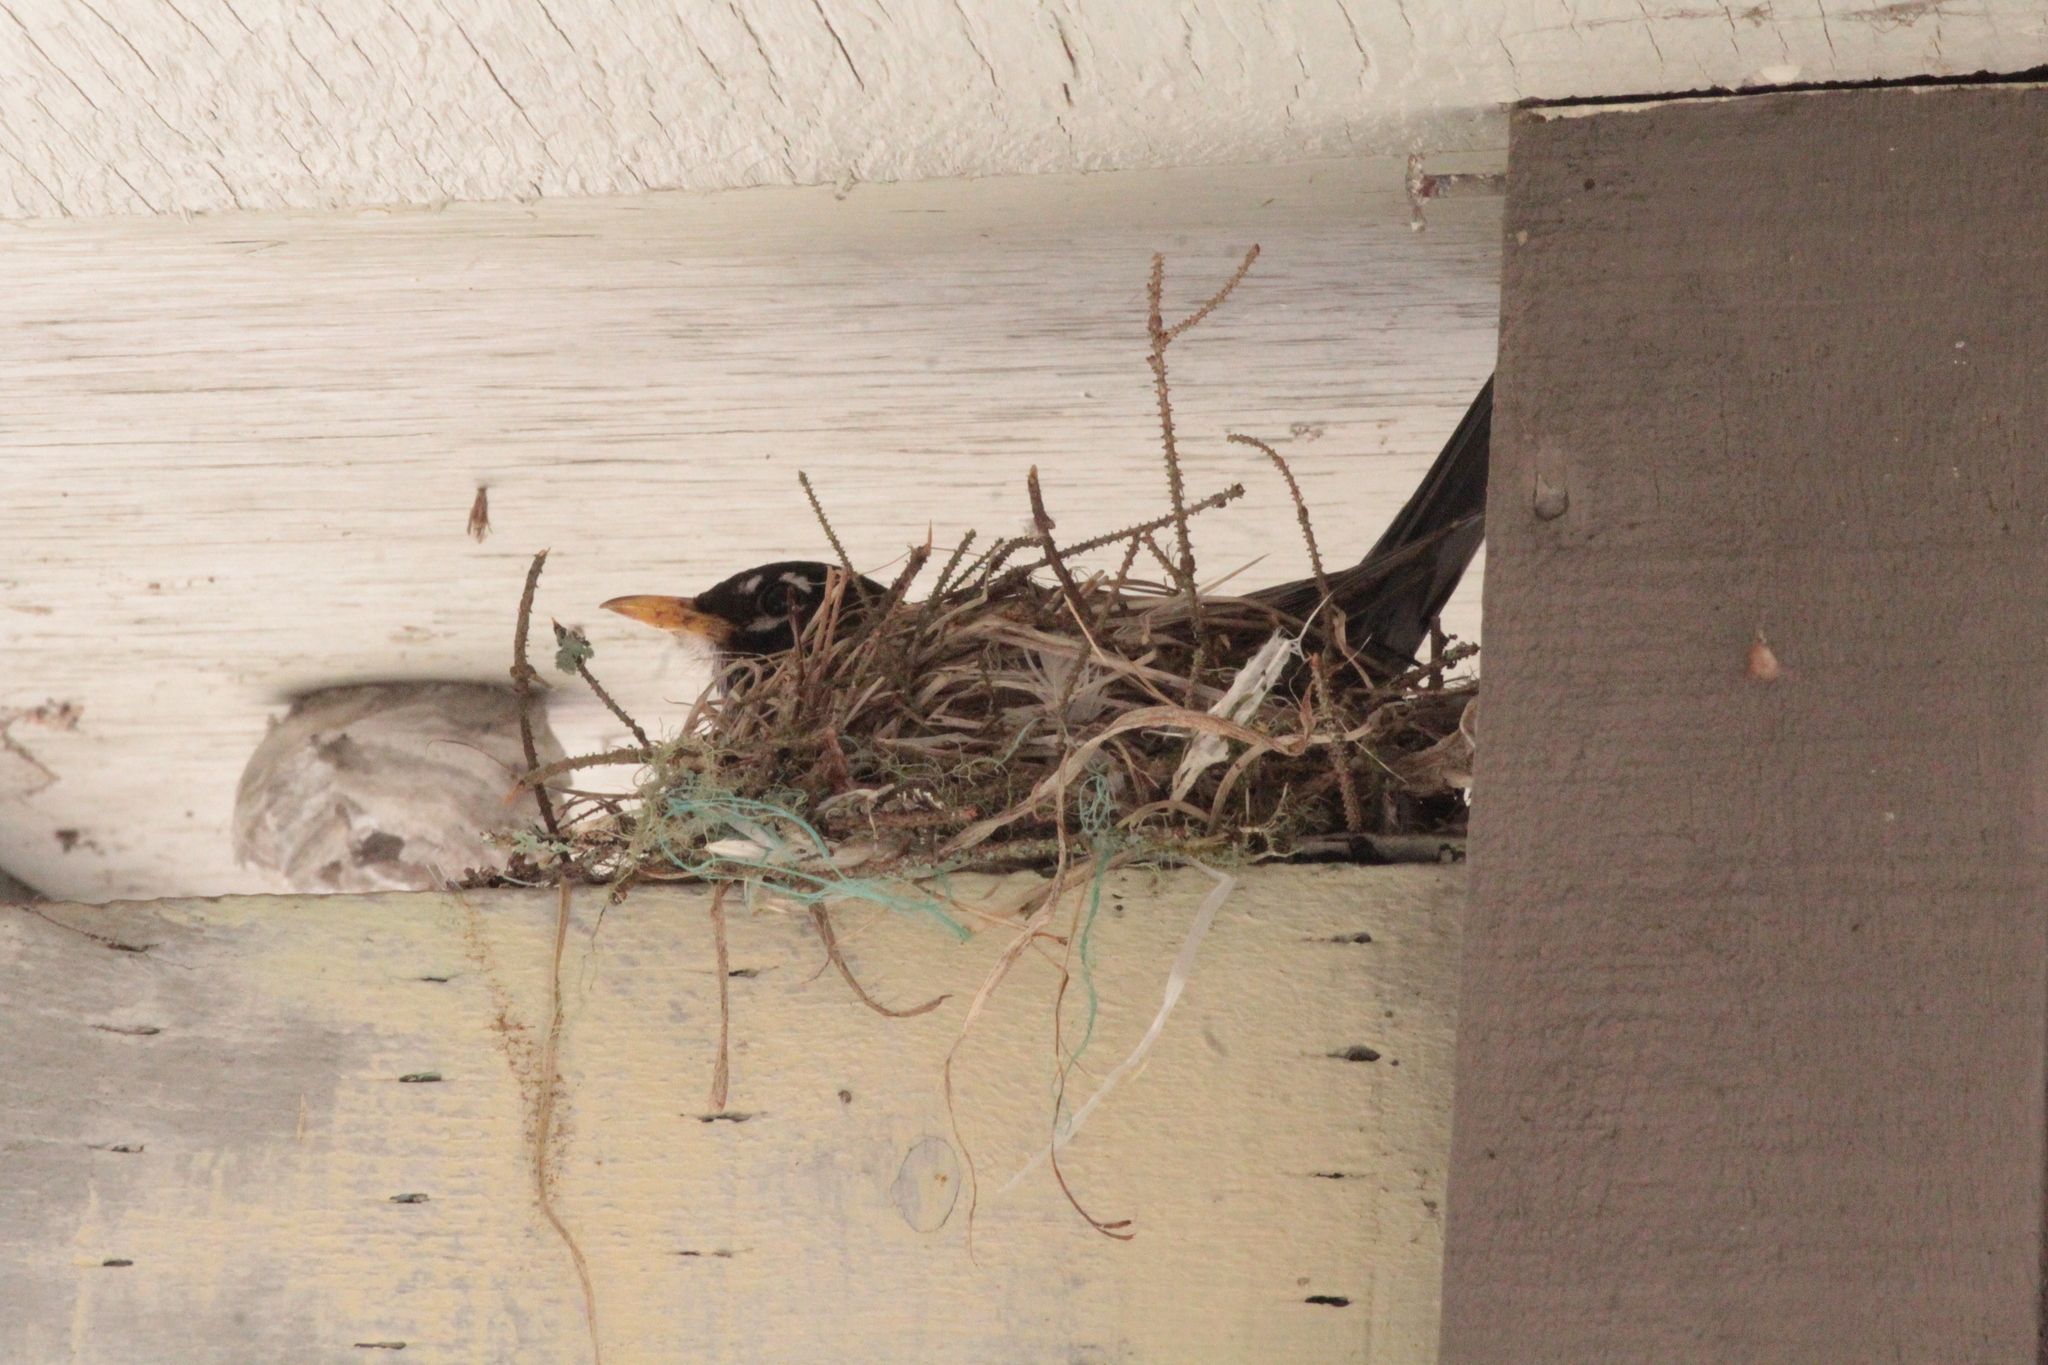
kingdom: Animalia
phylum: Chordata
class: Aves
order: Passeriformes
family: Turdidae
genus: Turdus
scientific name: Turdus migratorius
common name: American robin
